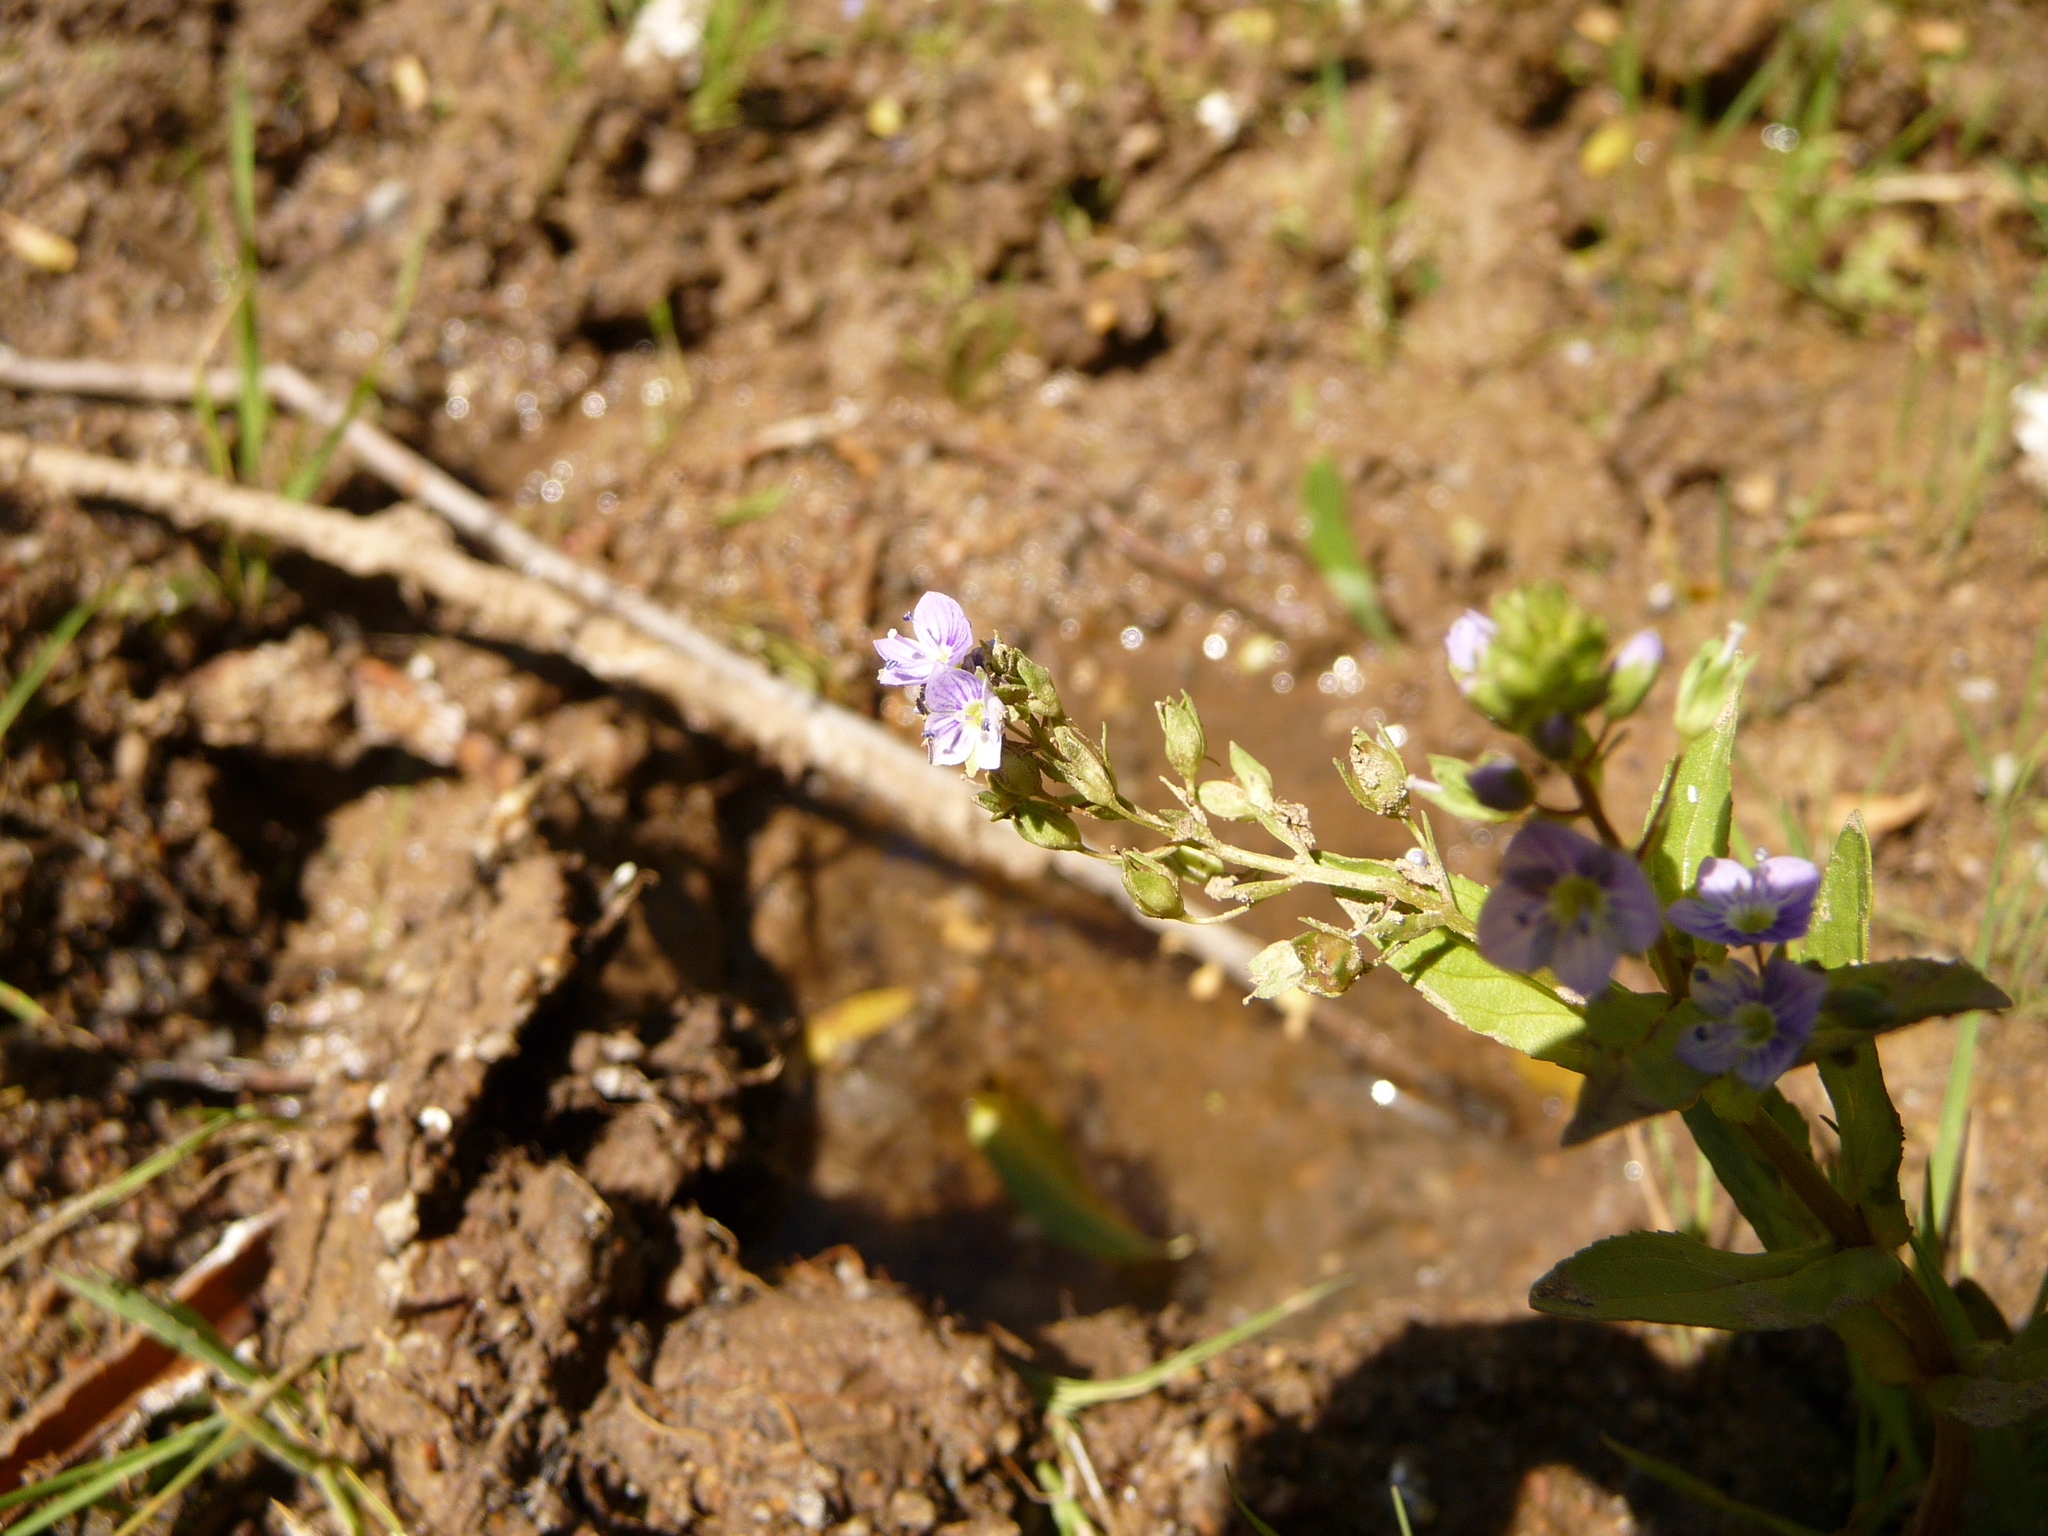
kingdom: Plantae
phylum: Tracheophyta
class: Magnoliopsida
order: Lamiales
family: Plantaginaceae
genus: Veronica
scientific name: Veronica anagallis-aquatica
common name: Water speedwell
